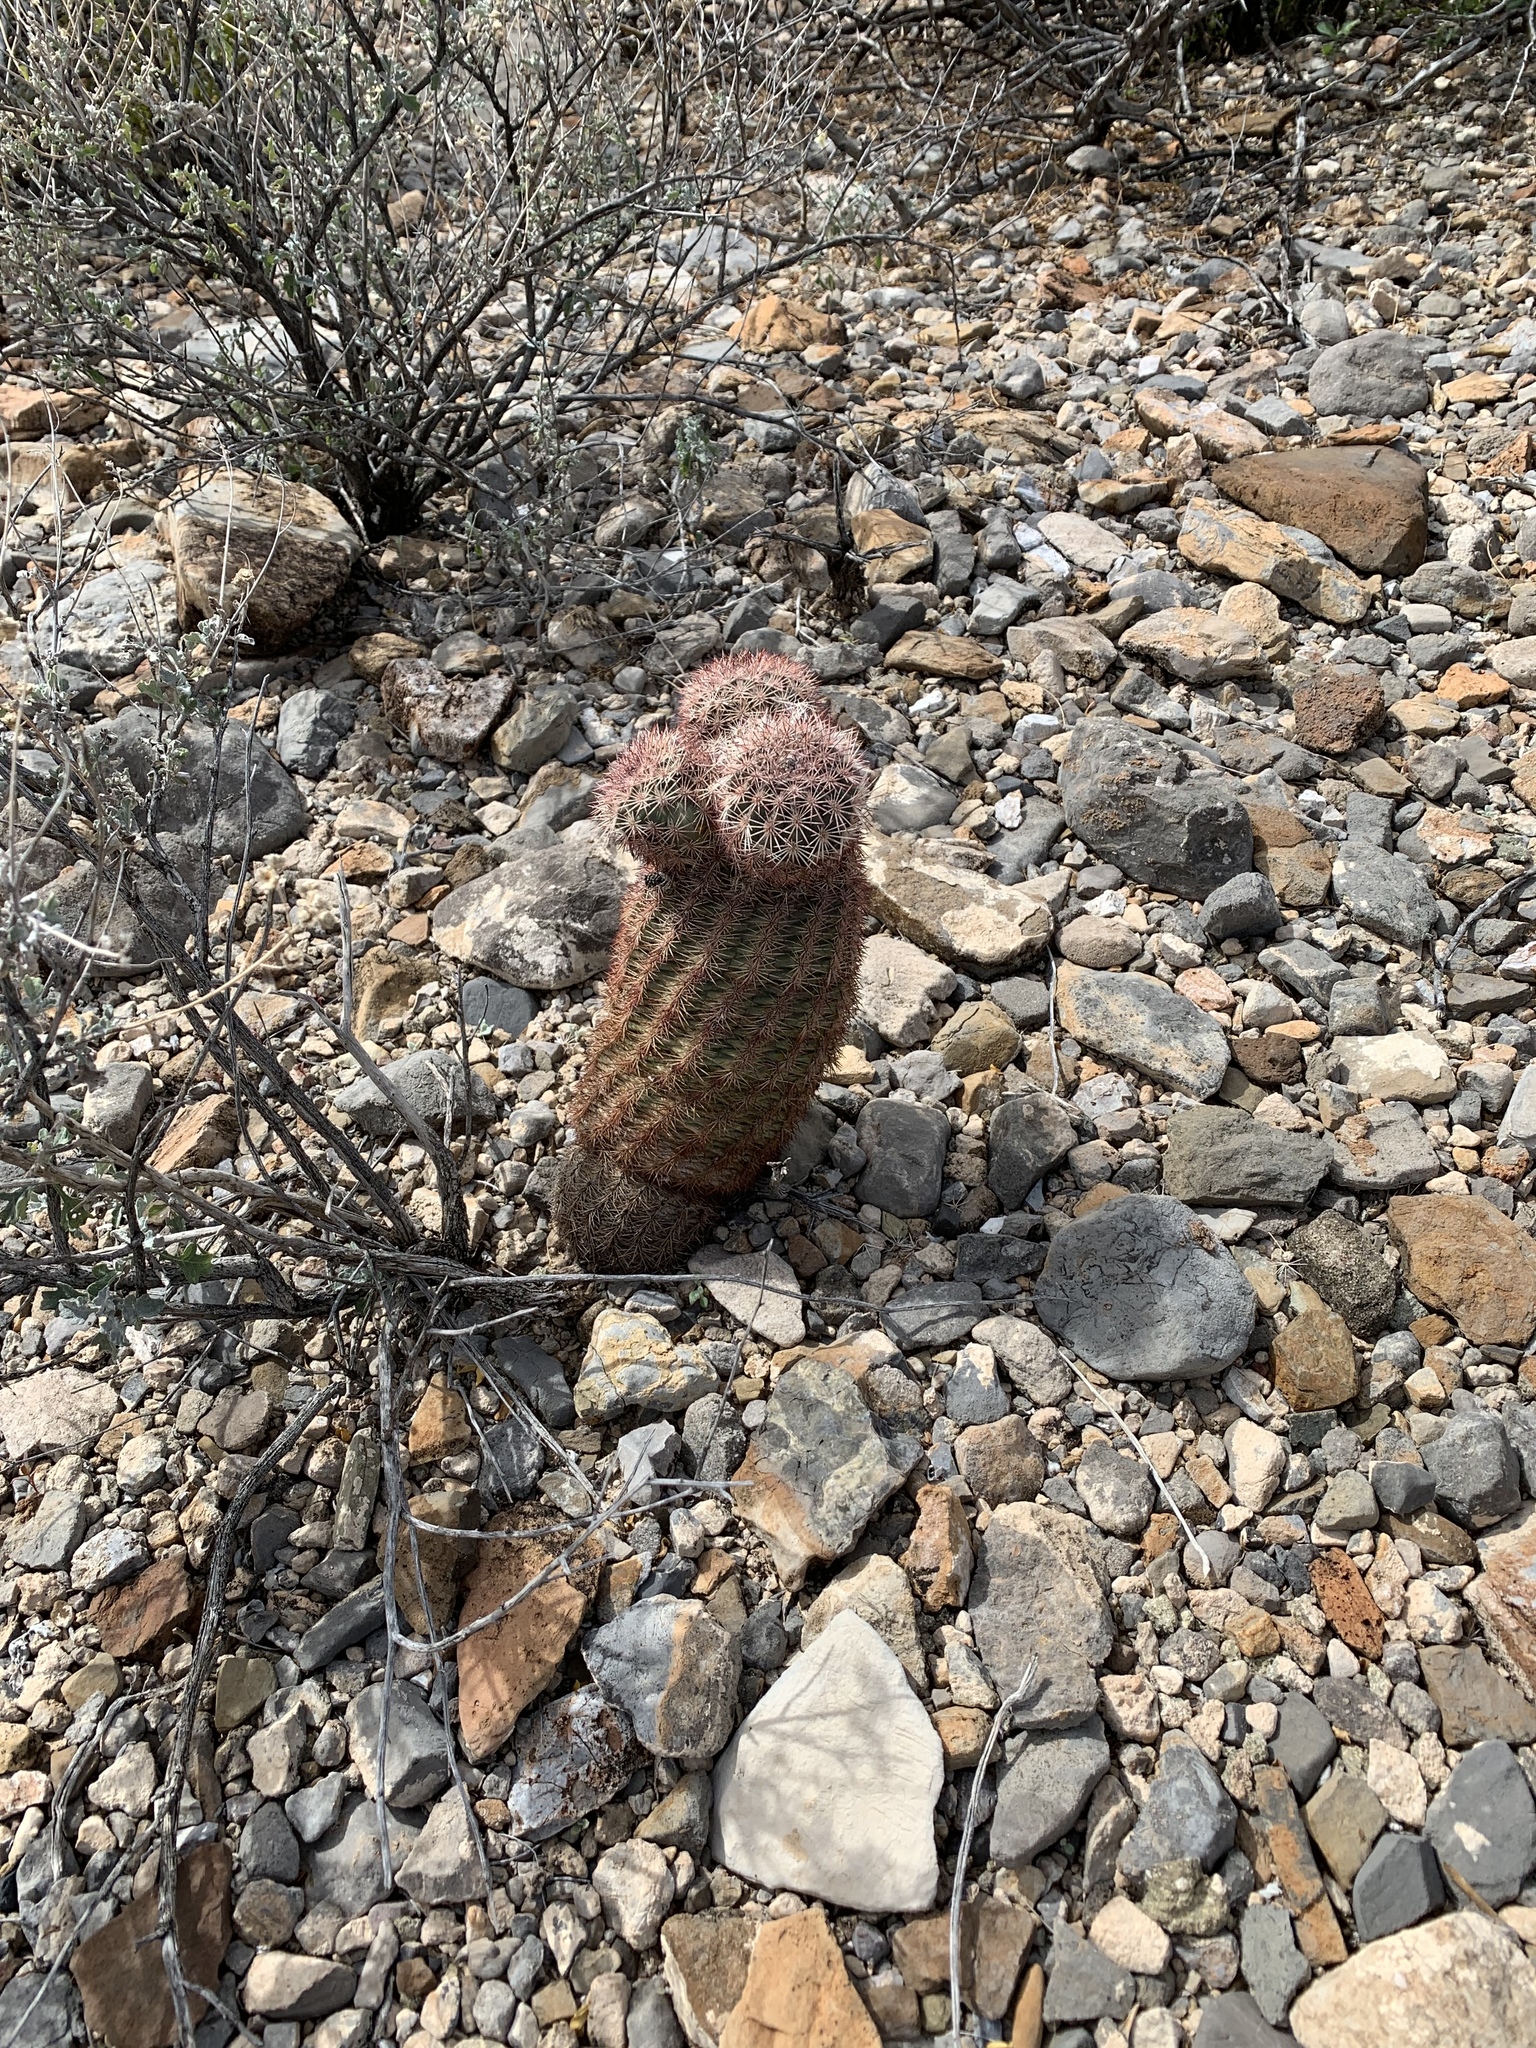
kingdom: Plantae
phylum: Tracheophyta
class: Magnoliopsida
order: Caryophyllales
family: Cactaceae
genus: Echinocereus
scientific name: Echinocereus dasyacanthus
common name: Spiny hedgehog cactus
